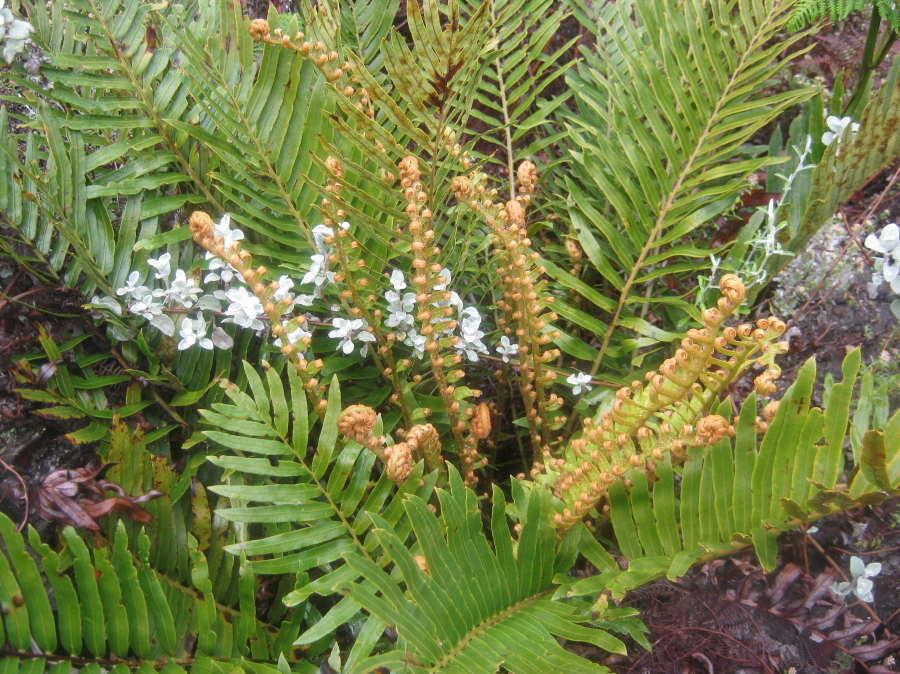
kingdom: Plantae
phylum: Tracheophyta
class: Polypodiopsida
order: Polypodiales
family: Blechnaceae
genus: Lomariocycas
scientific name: Lomariocycas tabularis
